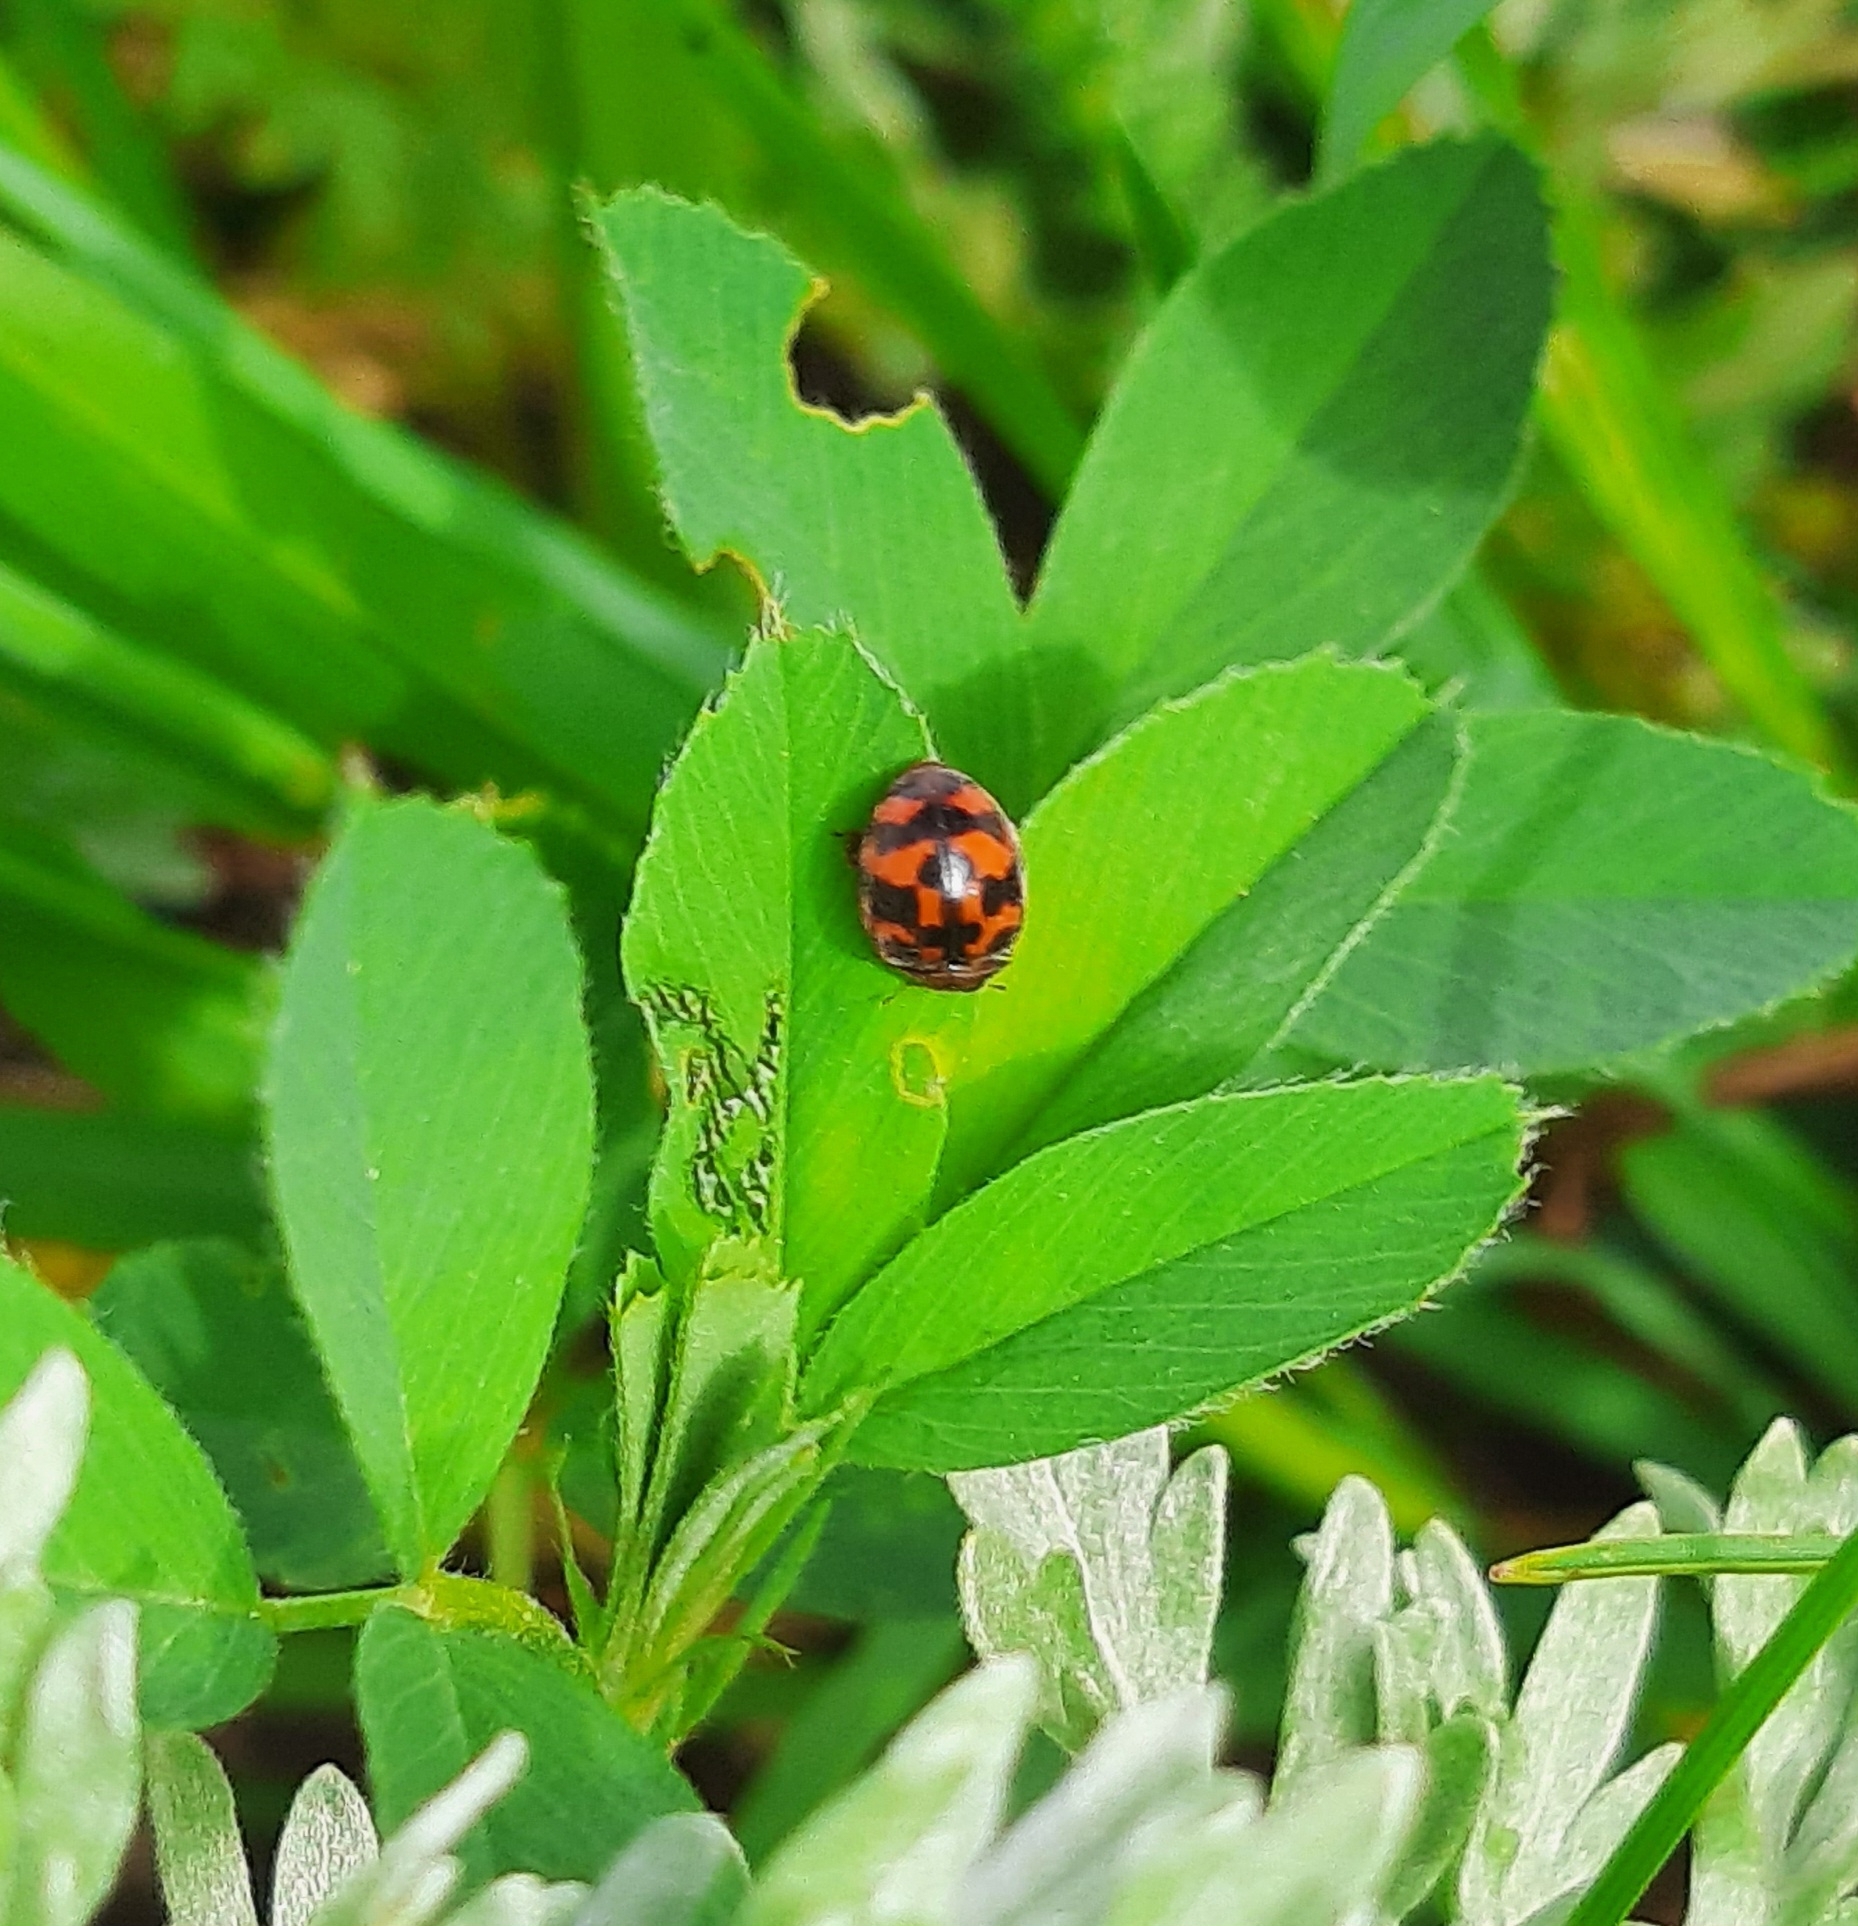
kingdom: Animalia
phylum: Arthropoda
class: Insecta
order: Coleoptera
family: Coccinellidae
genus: Subcoccinella
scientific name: Subcoccinella vigintiquatuorpunctata
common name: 24-spot ladybird
